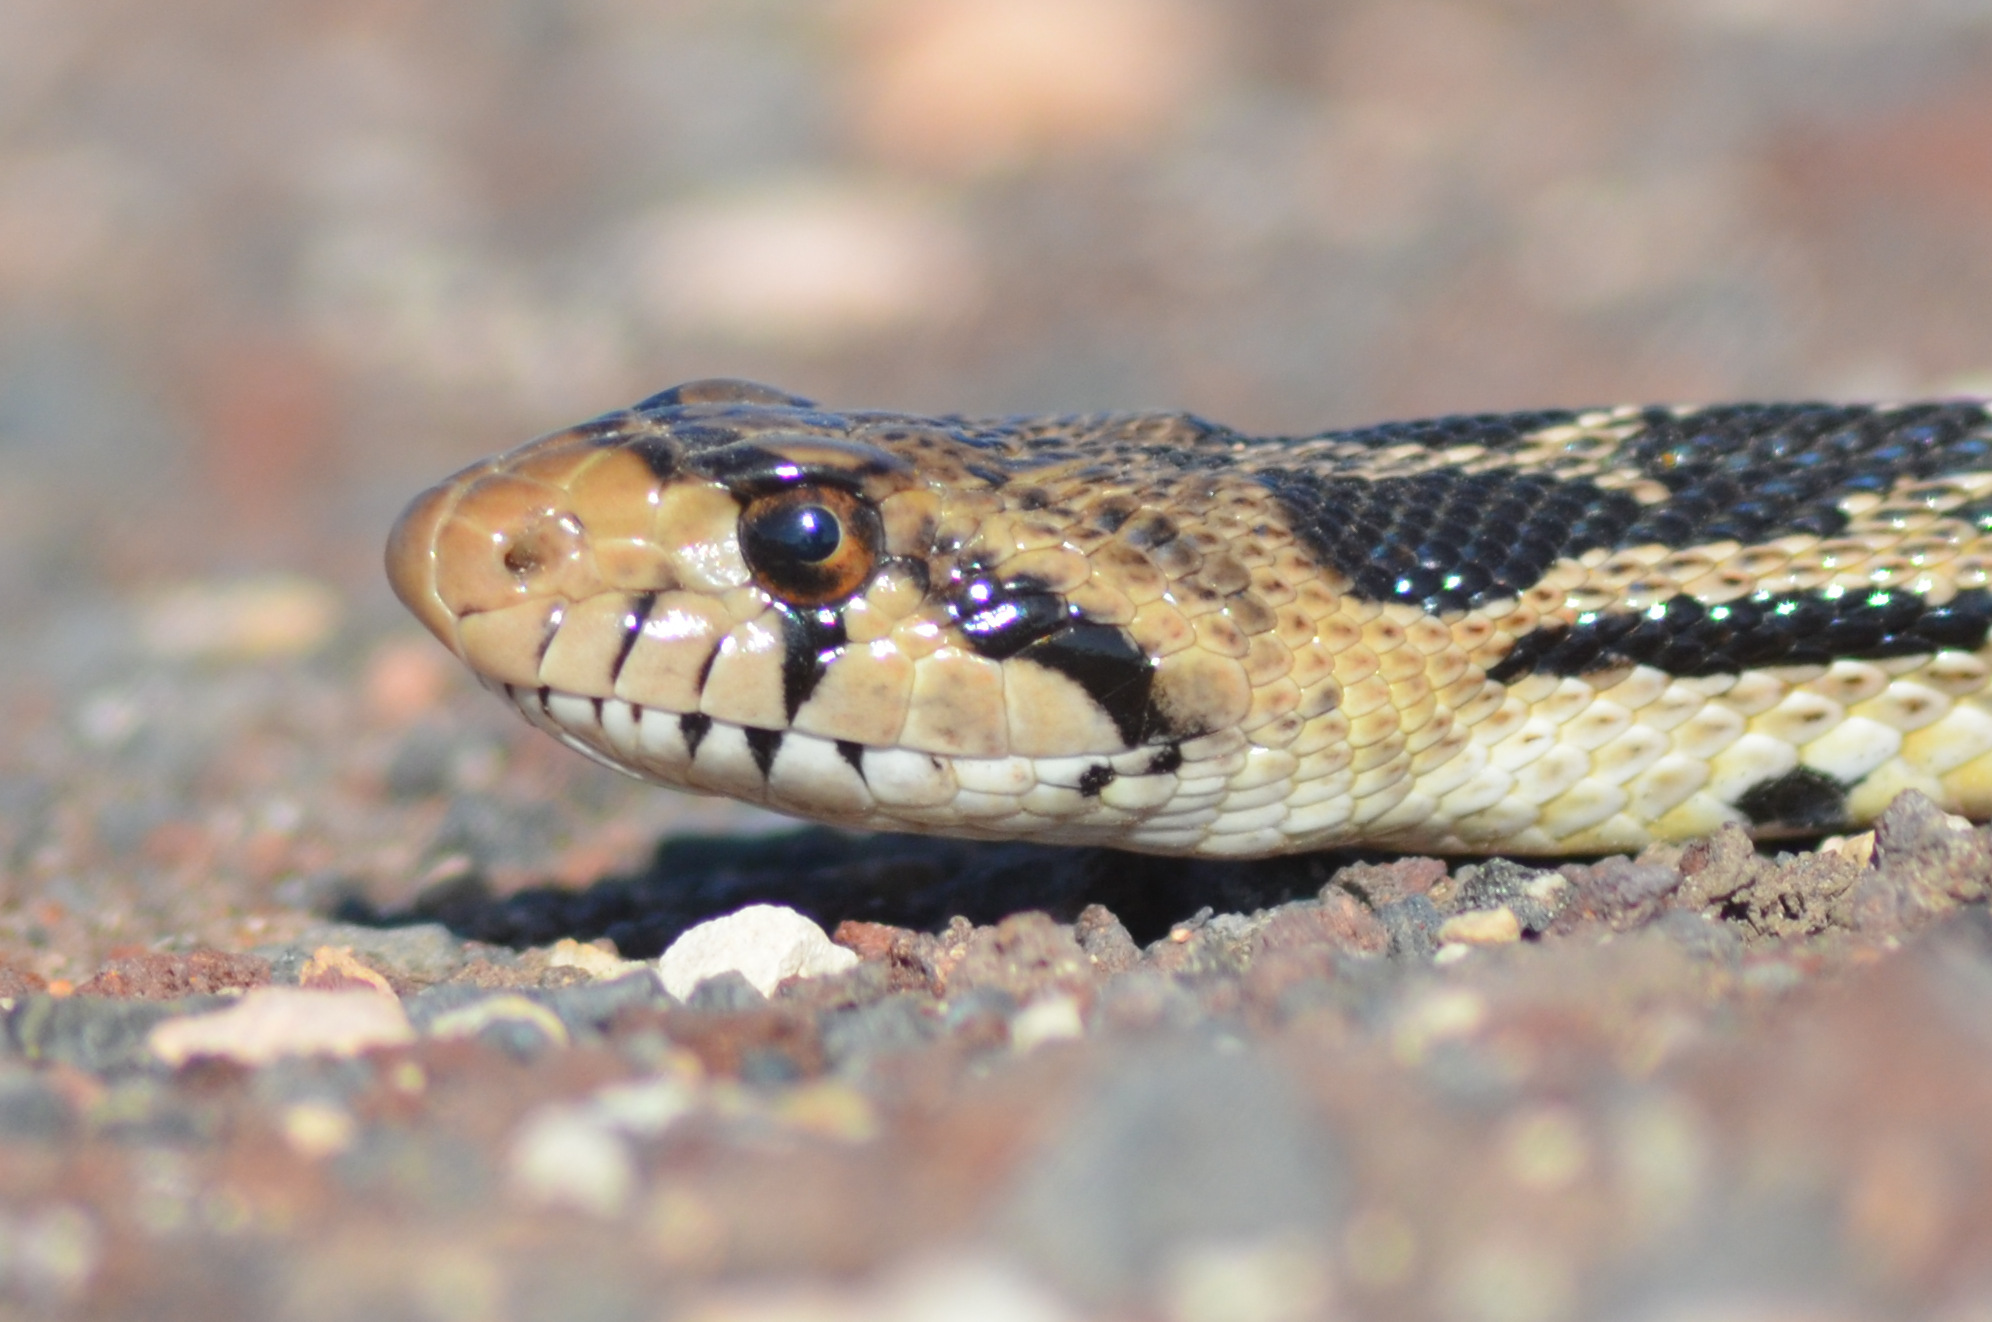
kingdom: Animalia
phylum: Chordata
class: Squamata
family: Colubridae
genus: Pituophis
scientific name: Pituophis catenifer
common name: Gopher snake
